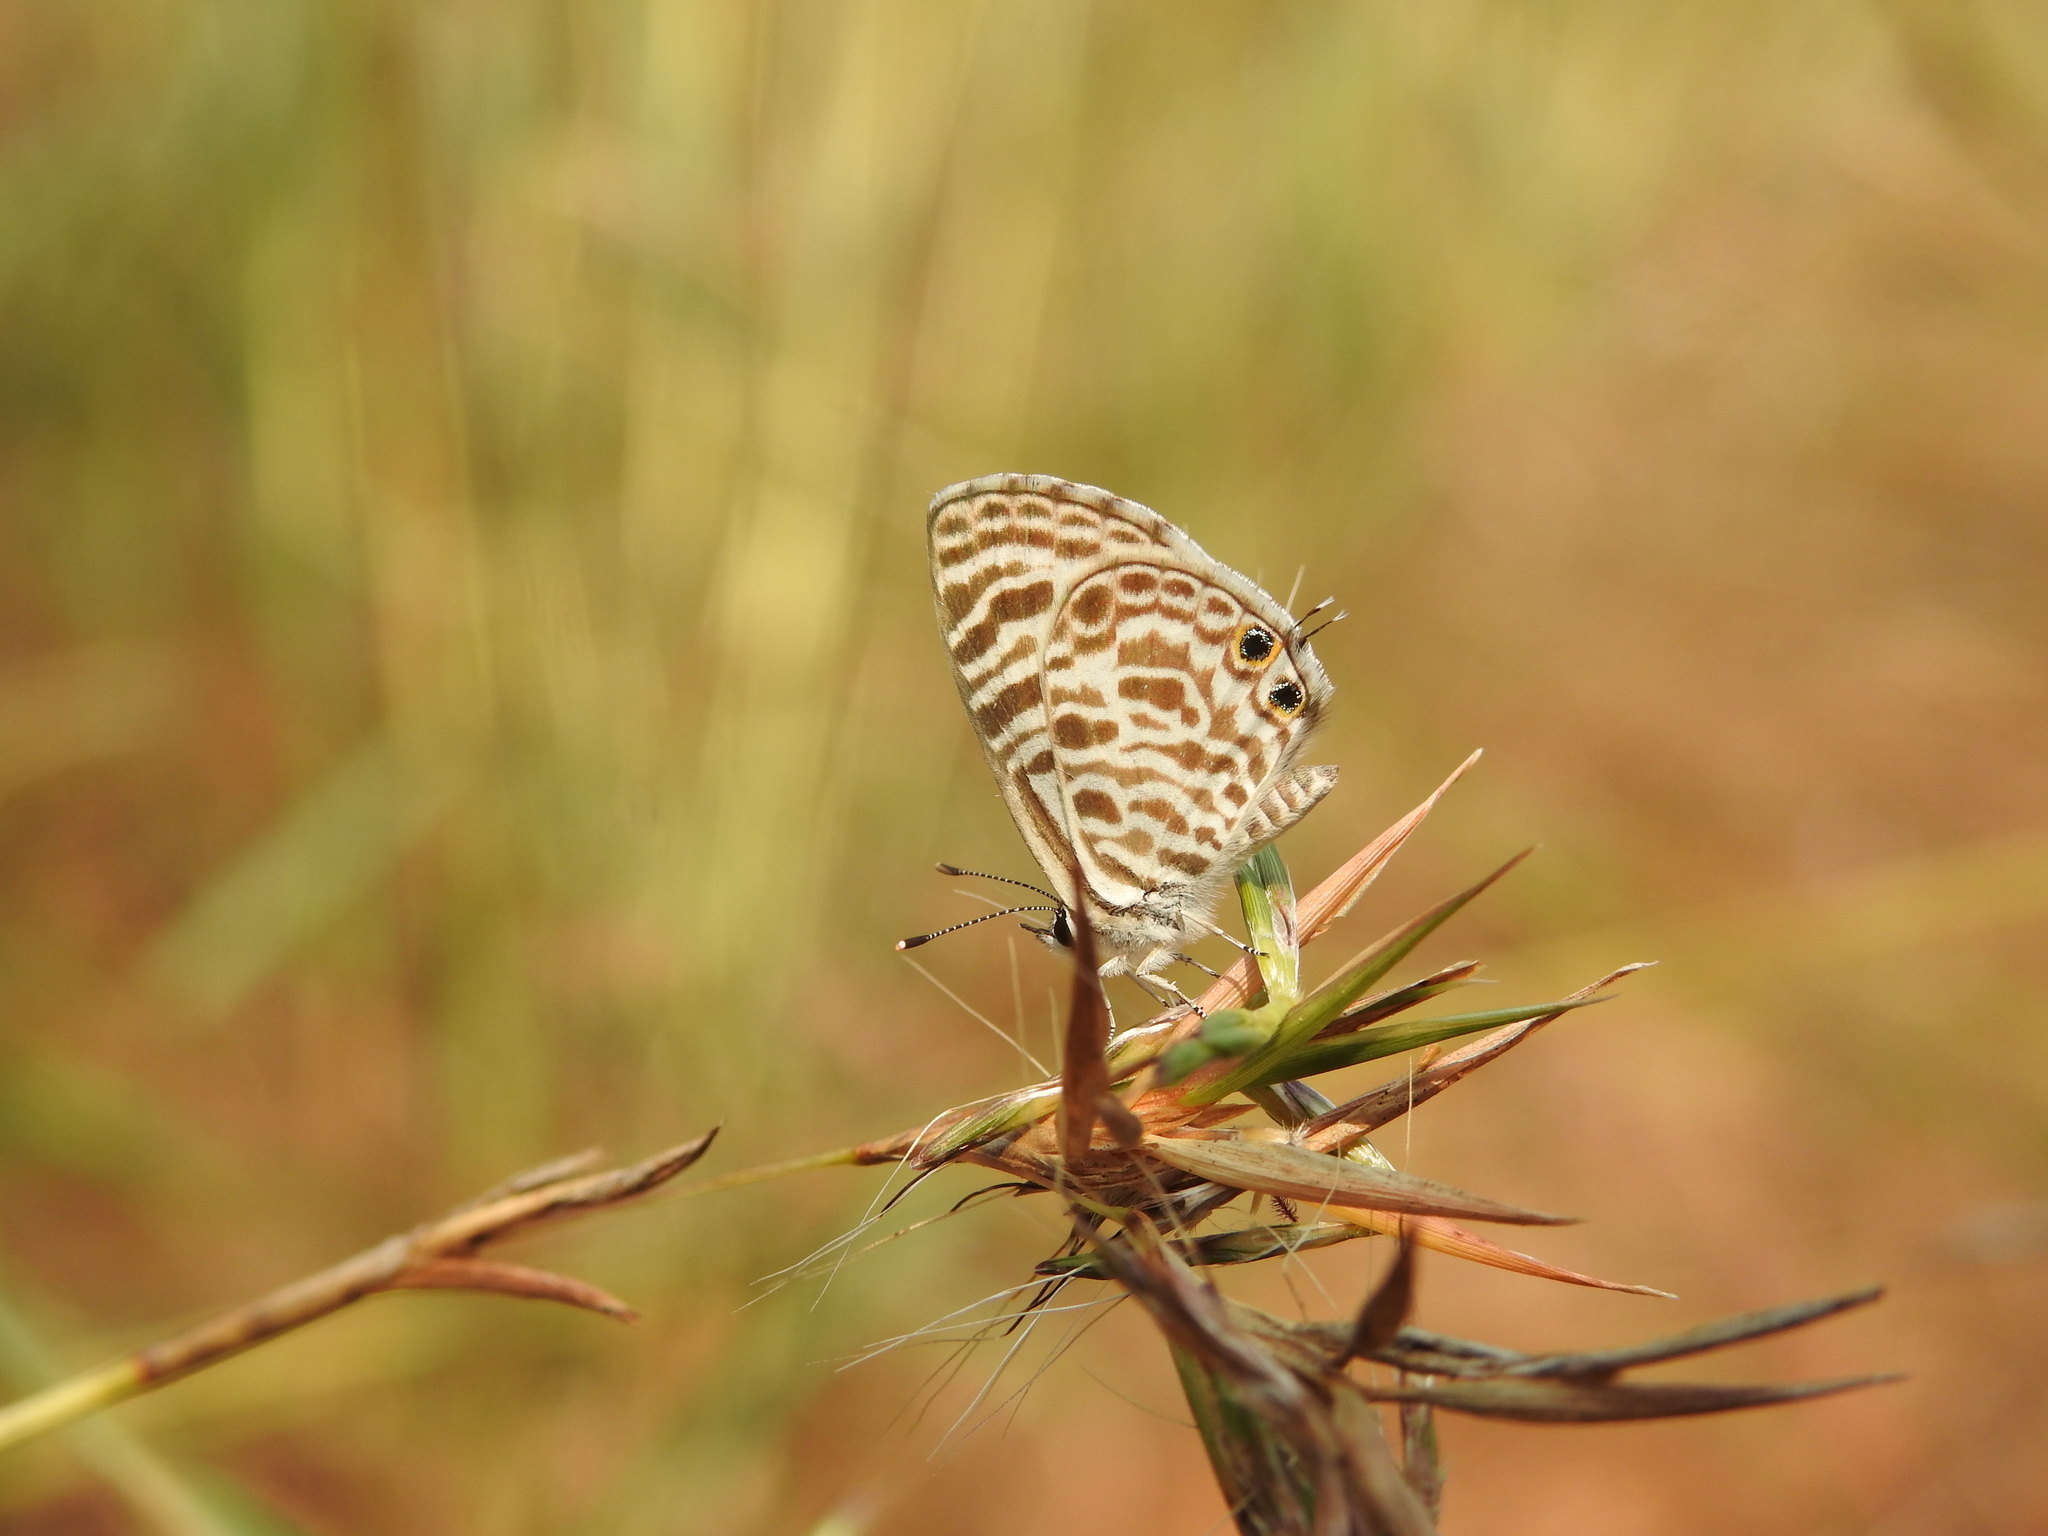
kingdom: Animalia
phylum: Arthropoda
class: Insecta
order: Lepidoptera
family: Lycaenidae
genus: Leptotes
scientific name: Leptotes plinius
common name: Zebra blue
